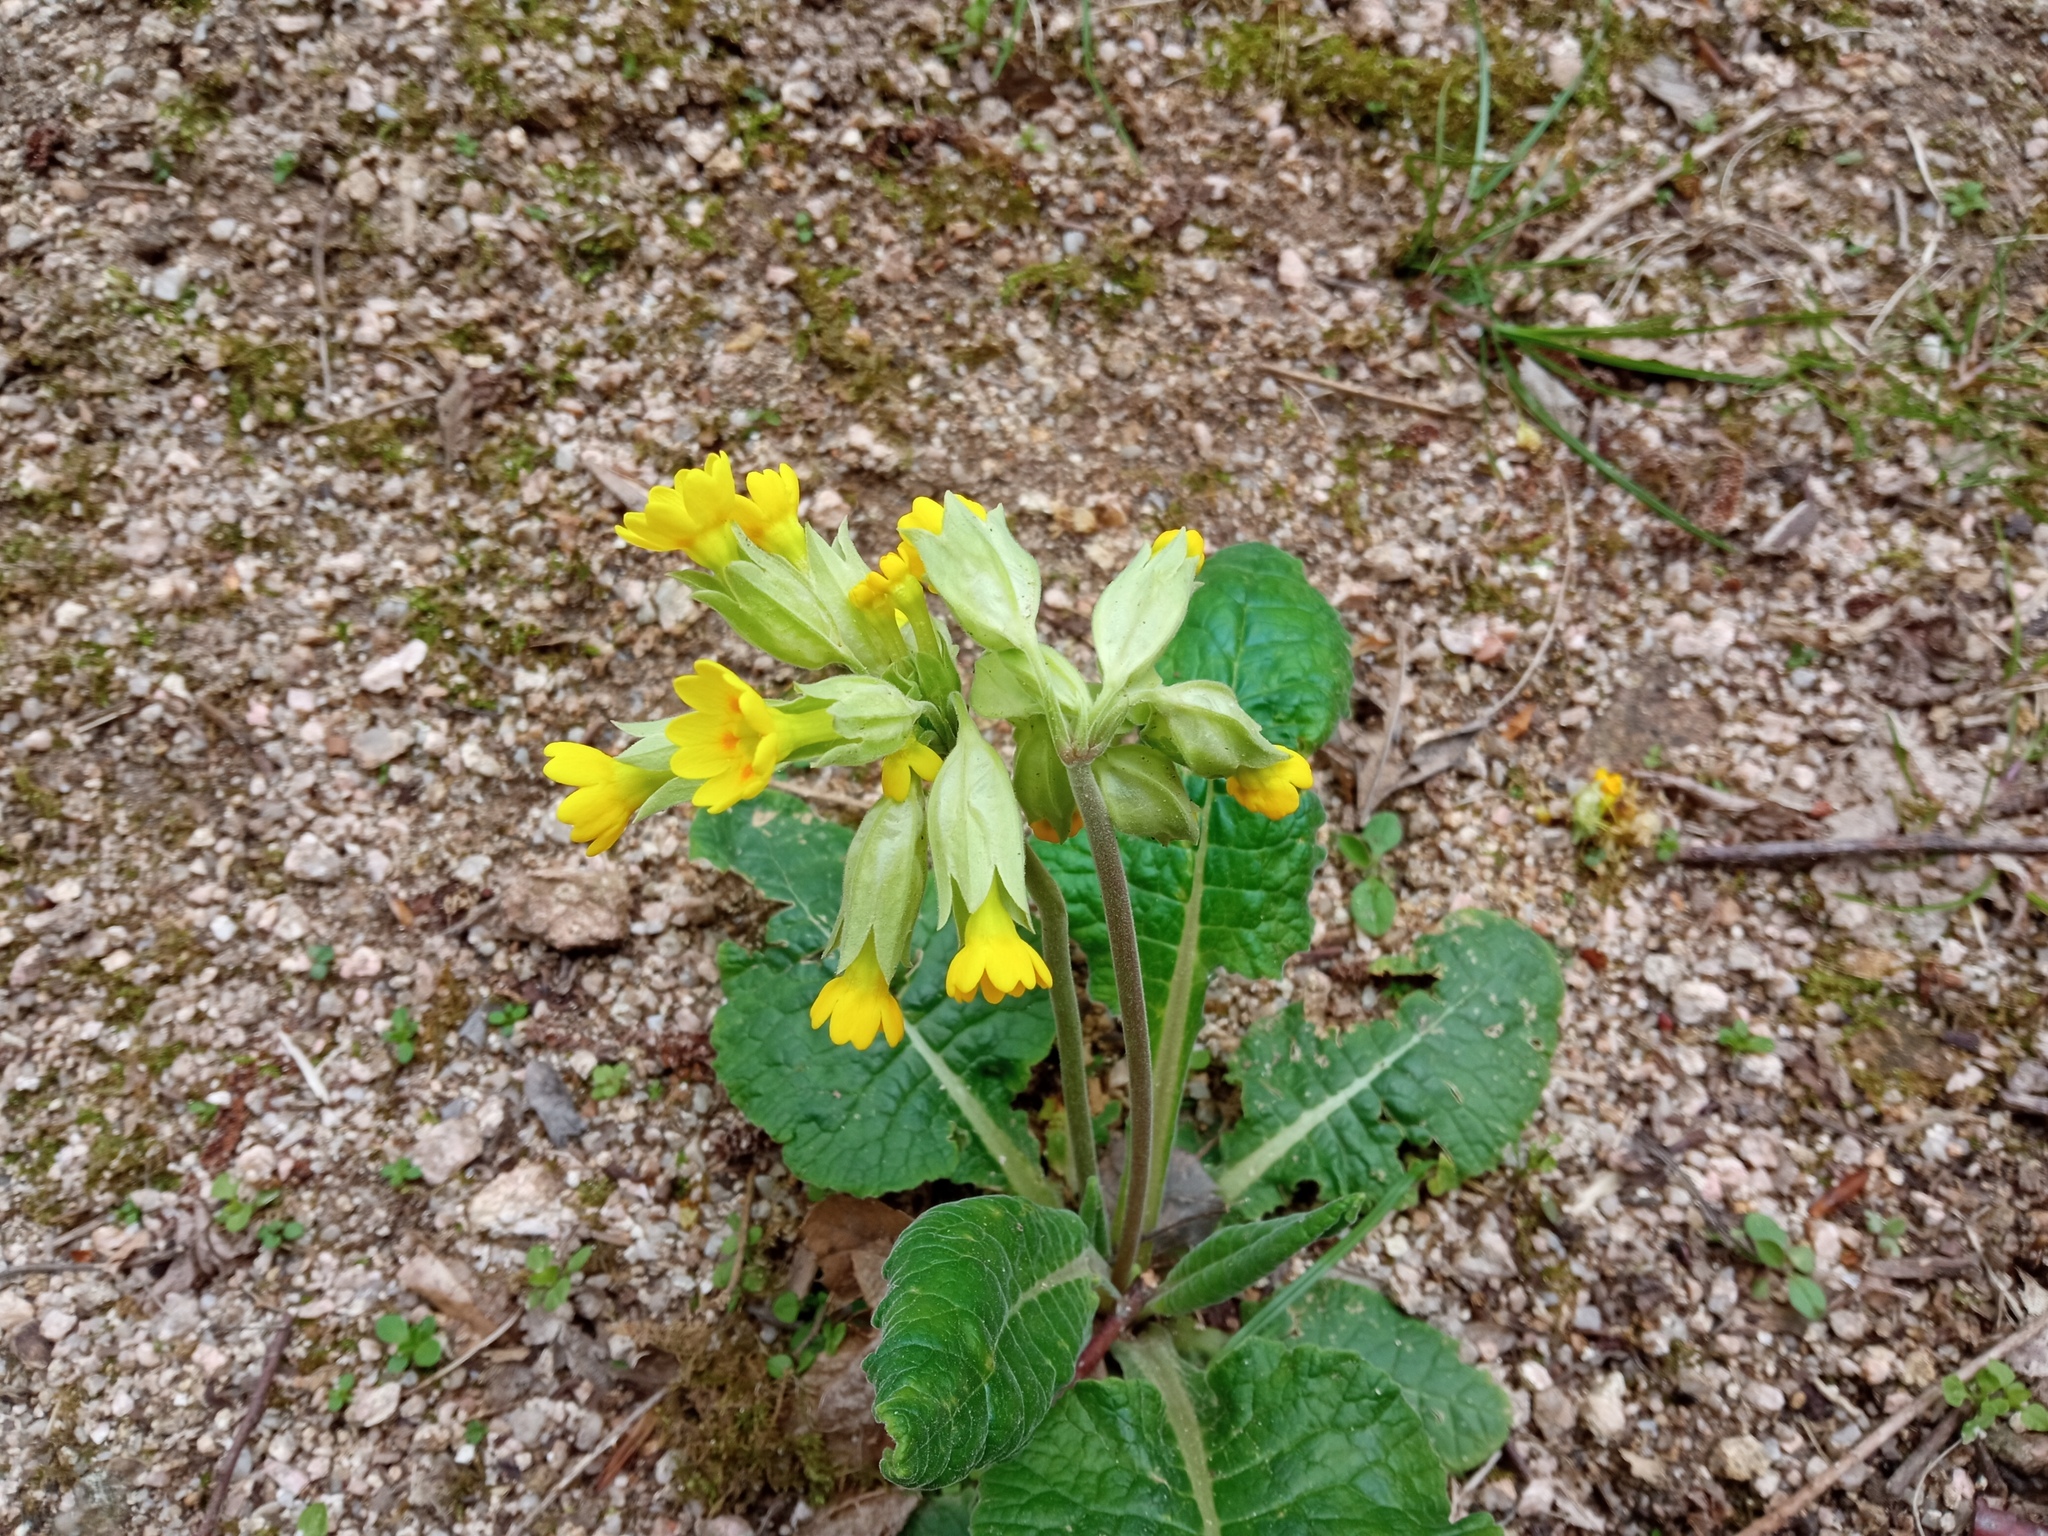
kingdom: Plantae
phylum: Tracheophyta
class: Magnoliopsida
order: Ericales
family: Primulaceae
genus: Primula
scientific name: Primula veris
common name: Cowslip
